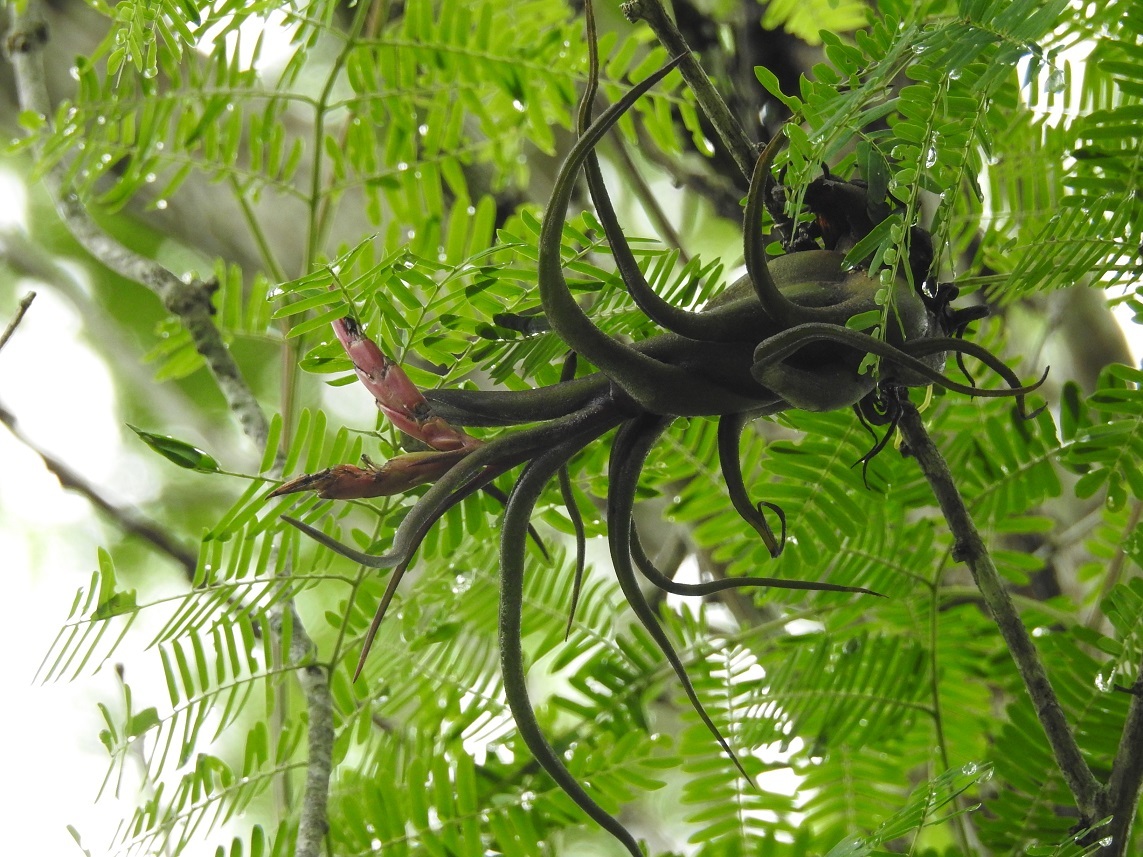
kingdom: Plantae
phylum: Tracheophyta
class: Liliopsida
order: Poales
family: Bromeliaceae
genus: Tillandsia
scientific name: Tillandsia caput-medusae
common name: Octopus plant
